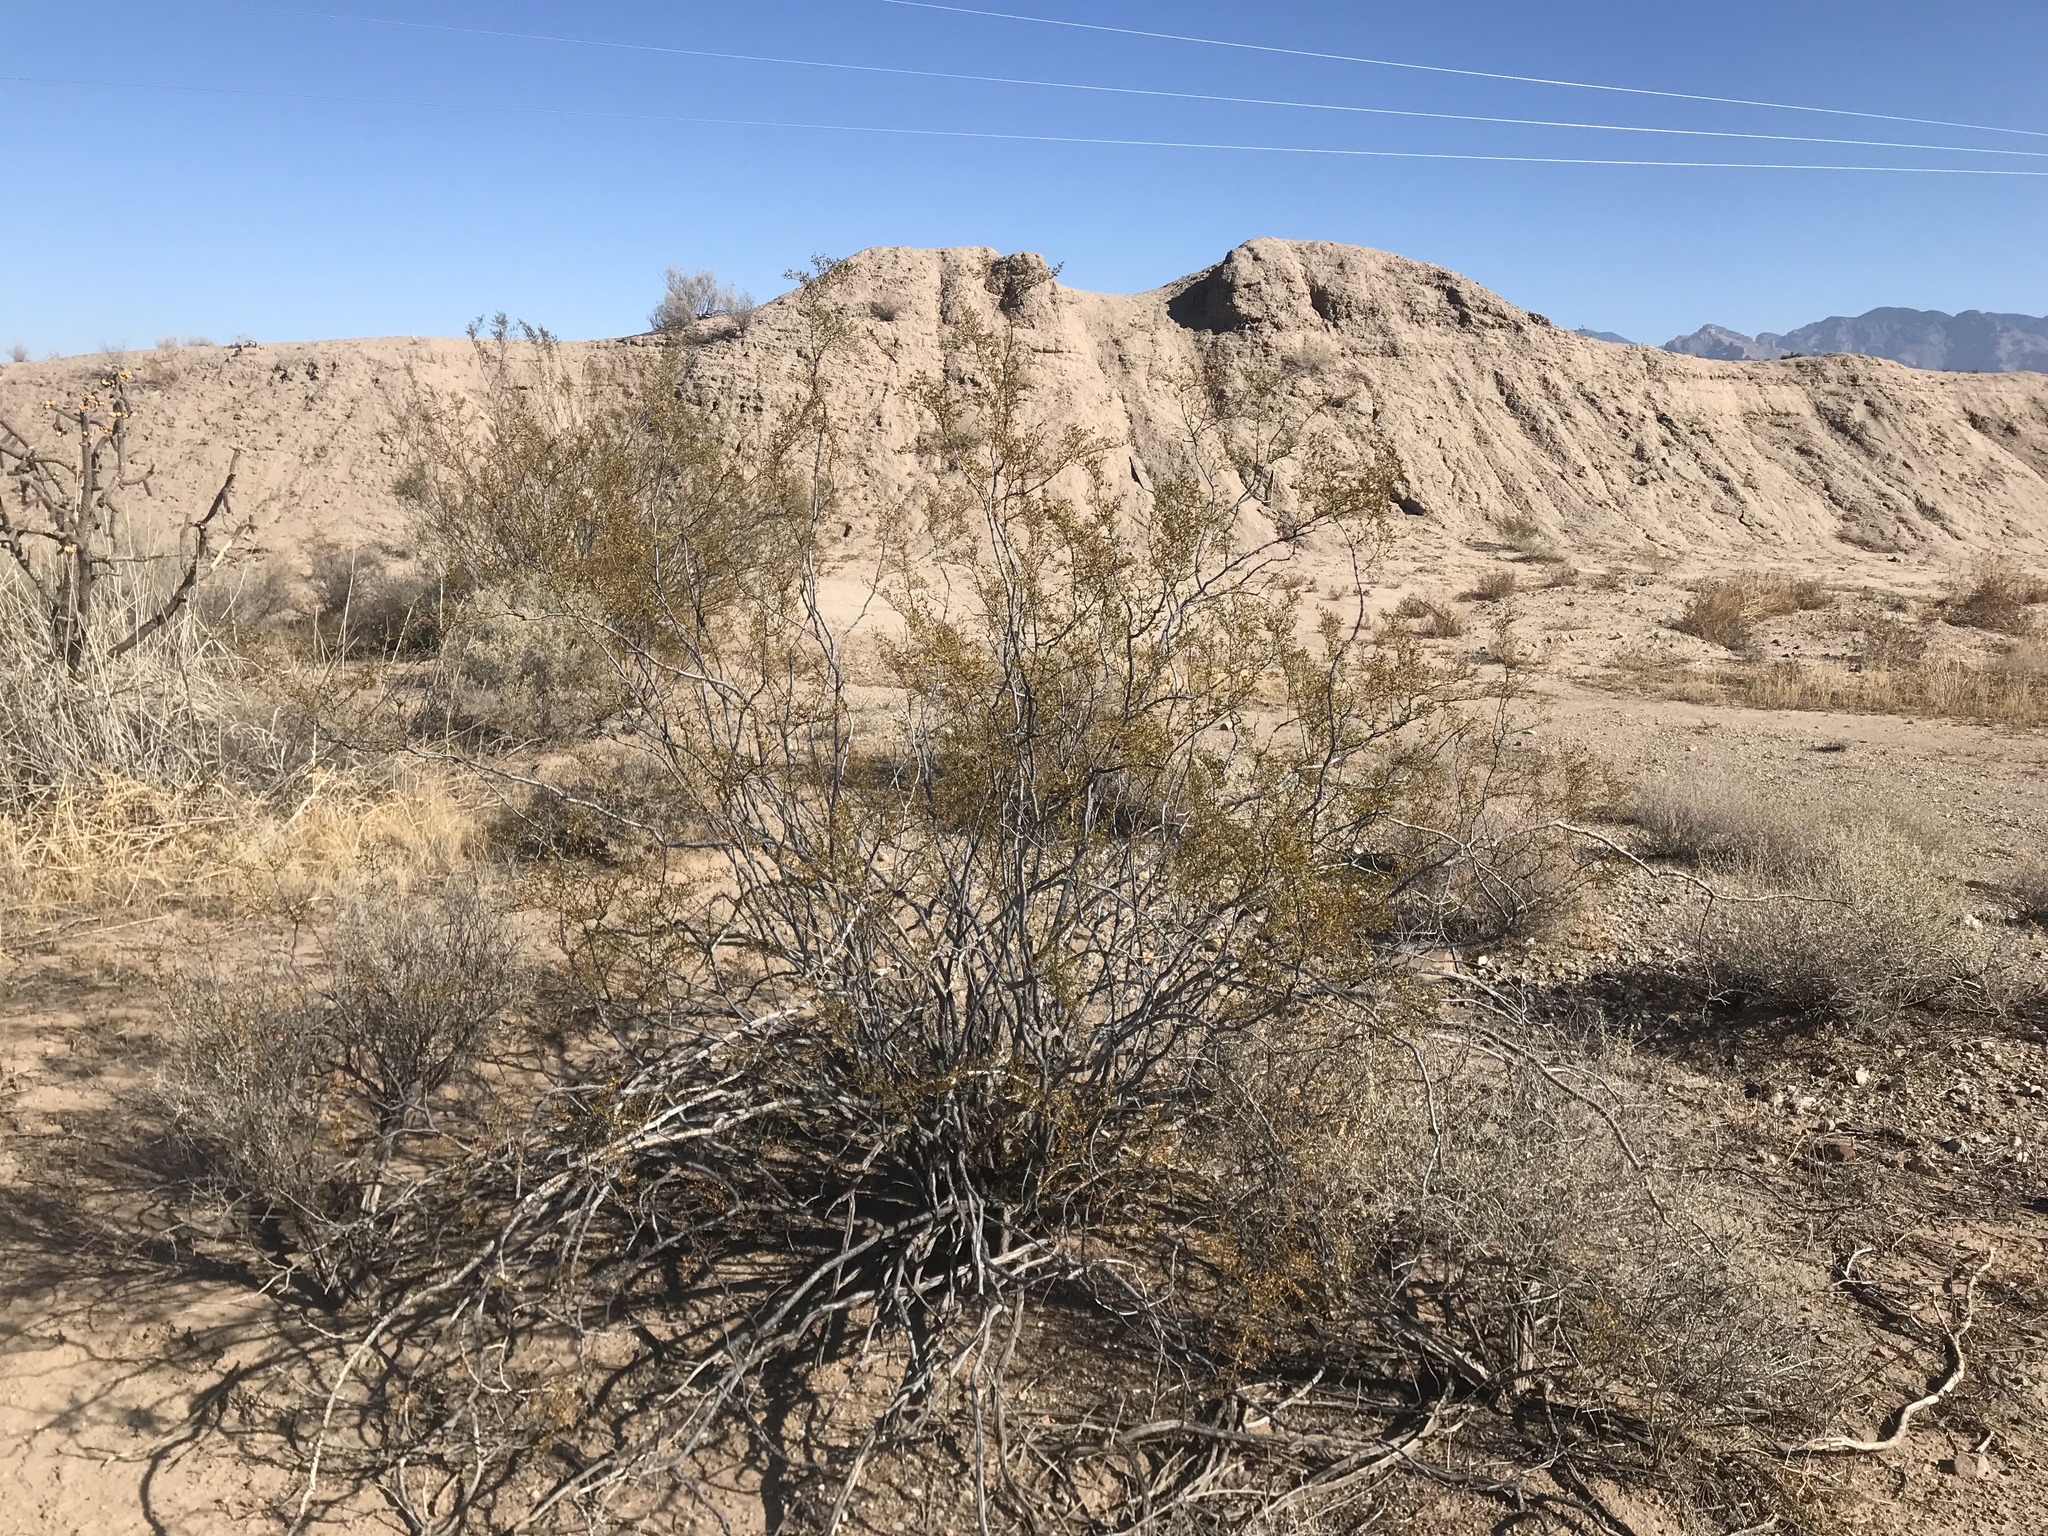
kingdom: Plantae
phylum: Tracheophyta
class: Magnoliopsida
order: Zygophyllales
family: Zygophyllaceae
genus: Larrea
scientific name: Larrea tridentata
